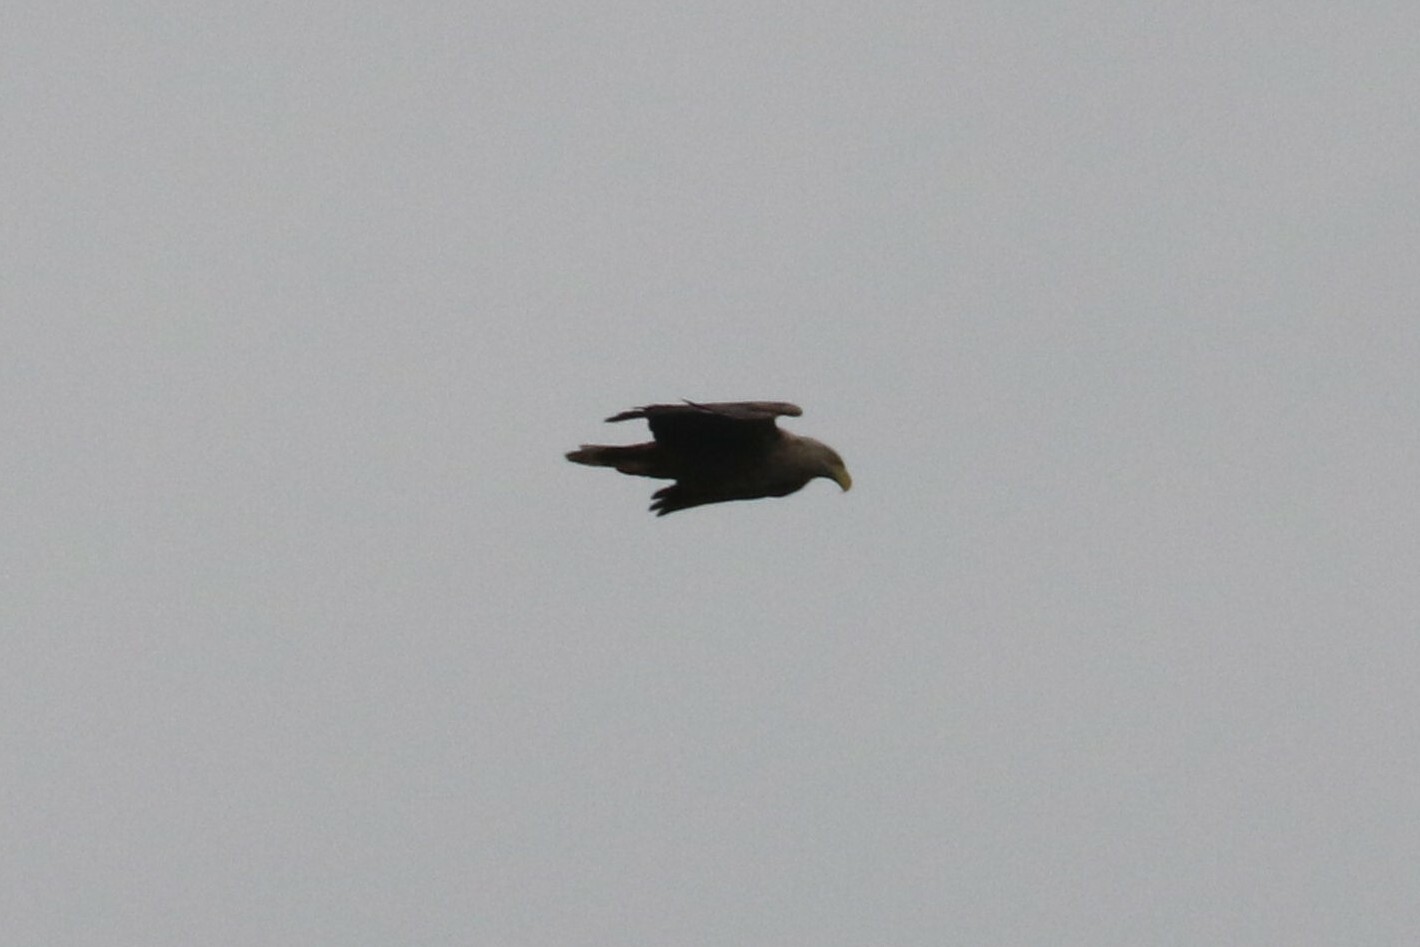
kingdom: Animalia
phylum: Chordata
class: Aves
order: Accipitriformes
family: Accipitridae
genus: Haliaeetus
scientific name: Haliaeetus albicilla
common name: White-tailed eagle
